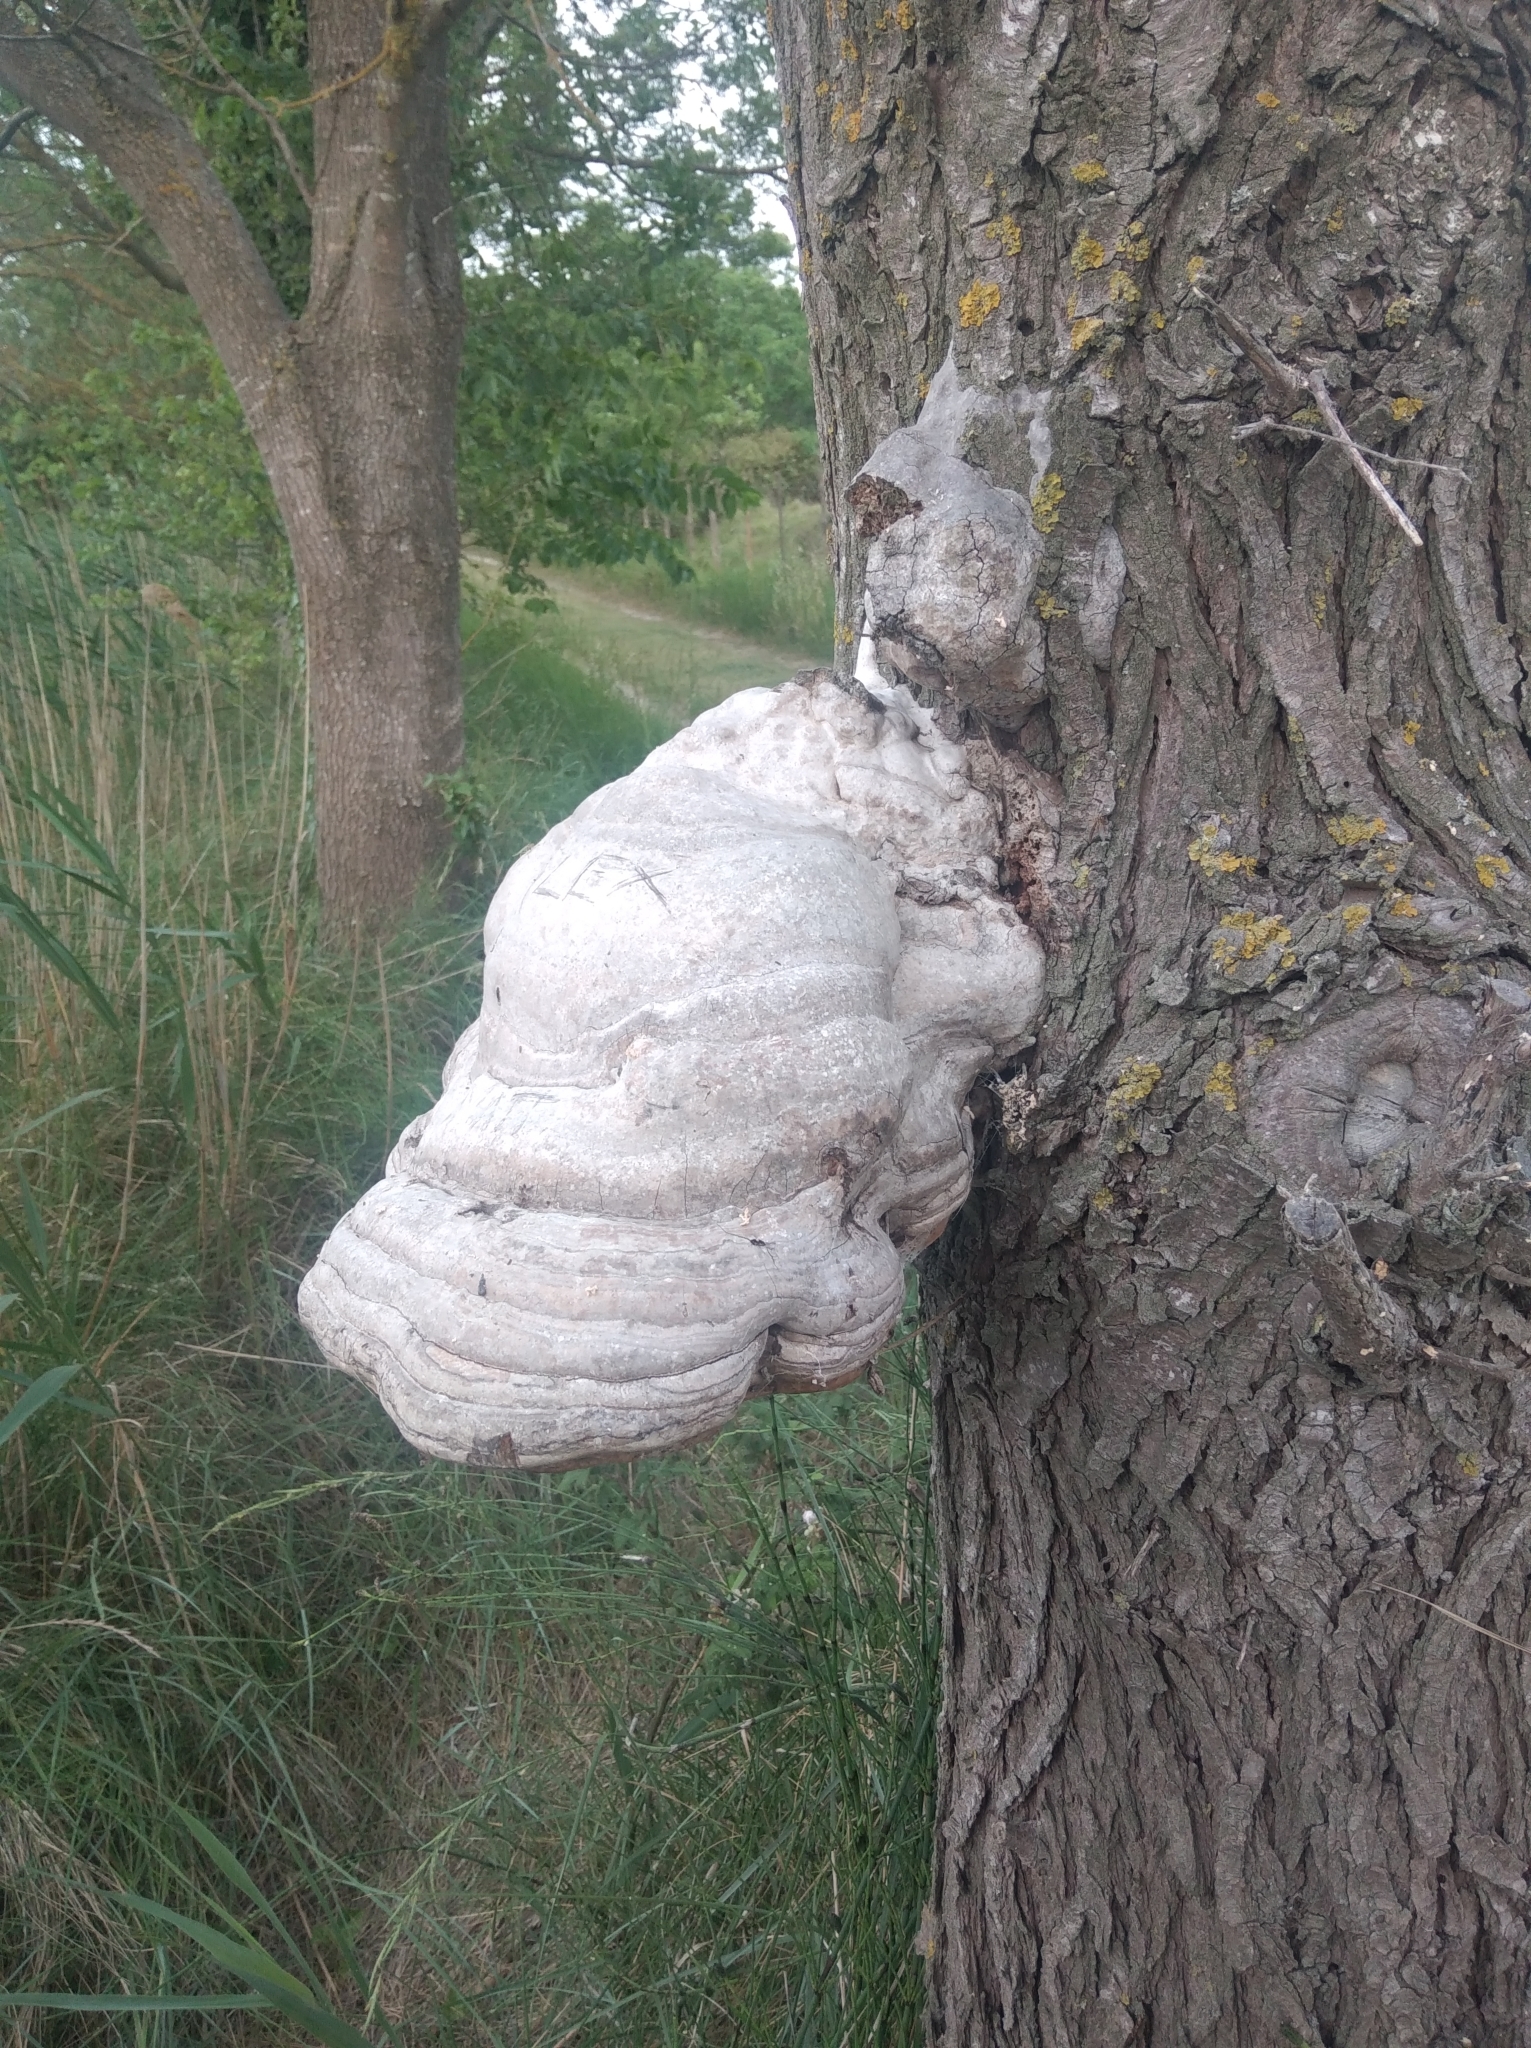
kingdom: Fungi
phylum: Basidiomycota
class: Agaricomycetes
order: Polyporales
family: Polyporaceae
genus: Fomes
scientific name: Fomes fomentarius
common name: Hoof fungus
